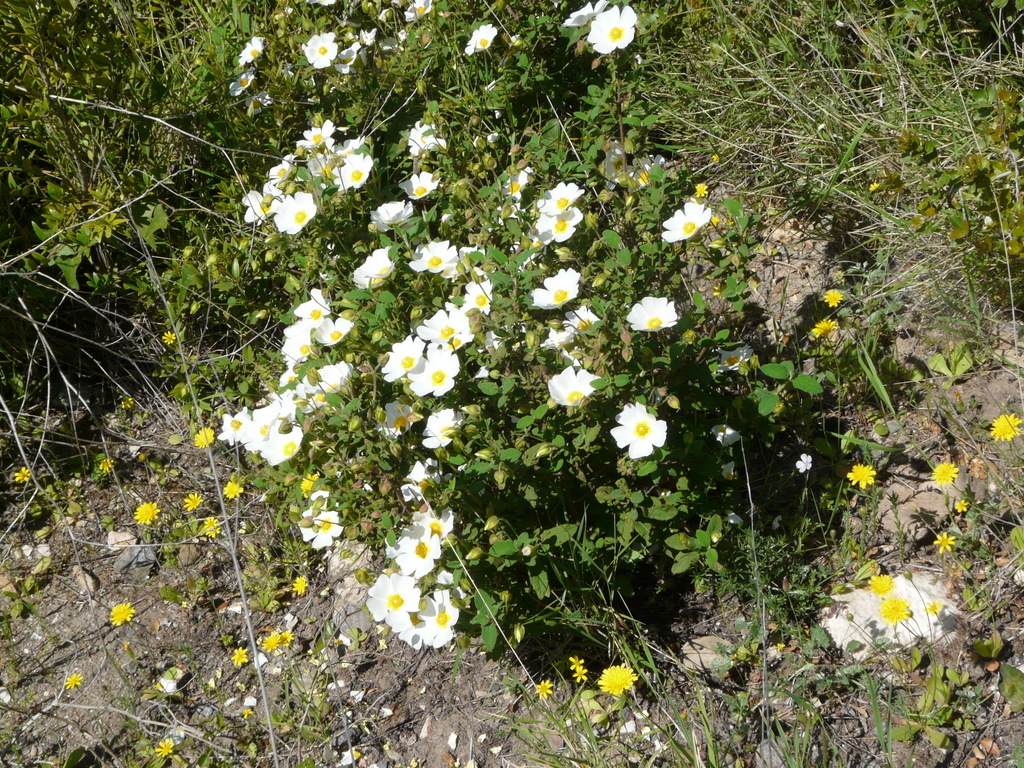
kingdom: Plantae
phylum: Tracheophyta
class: Magnoliopsida
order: Malvales
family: Cistaceae
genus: Cistus
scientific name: Cistus salviifolius
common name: Salvia cistus
